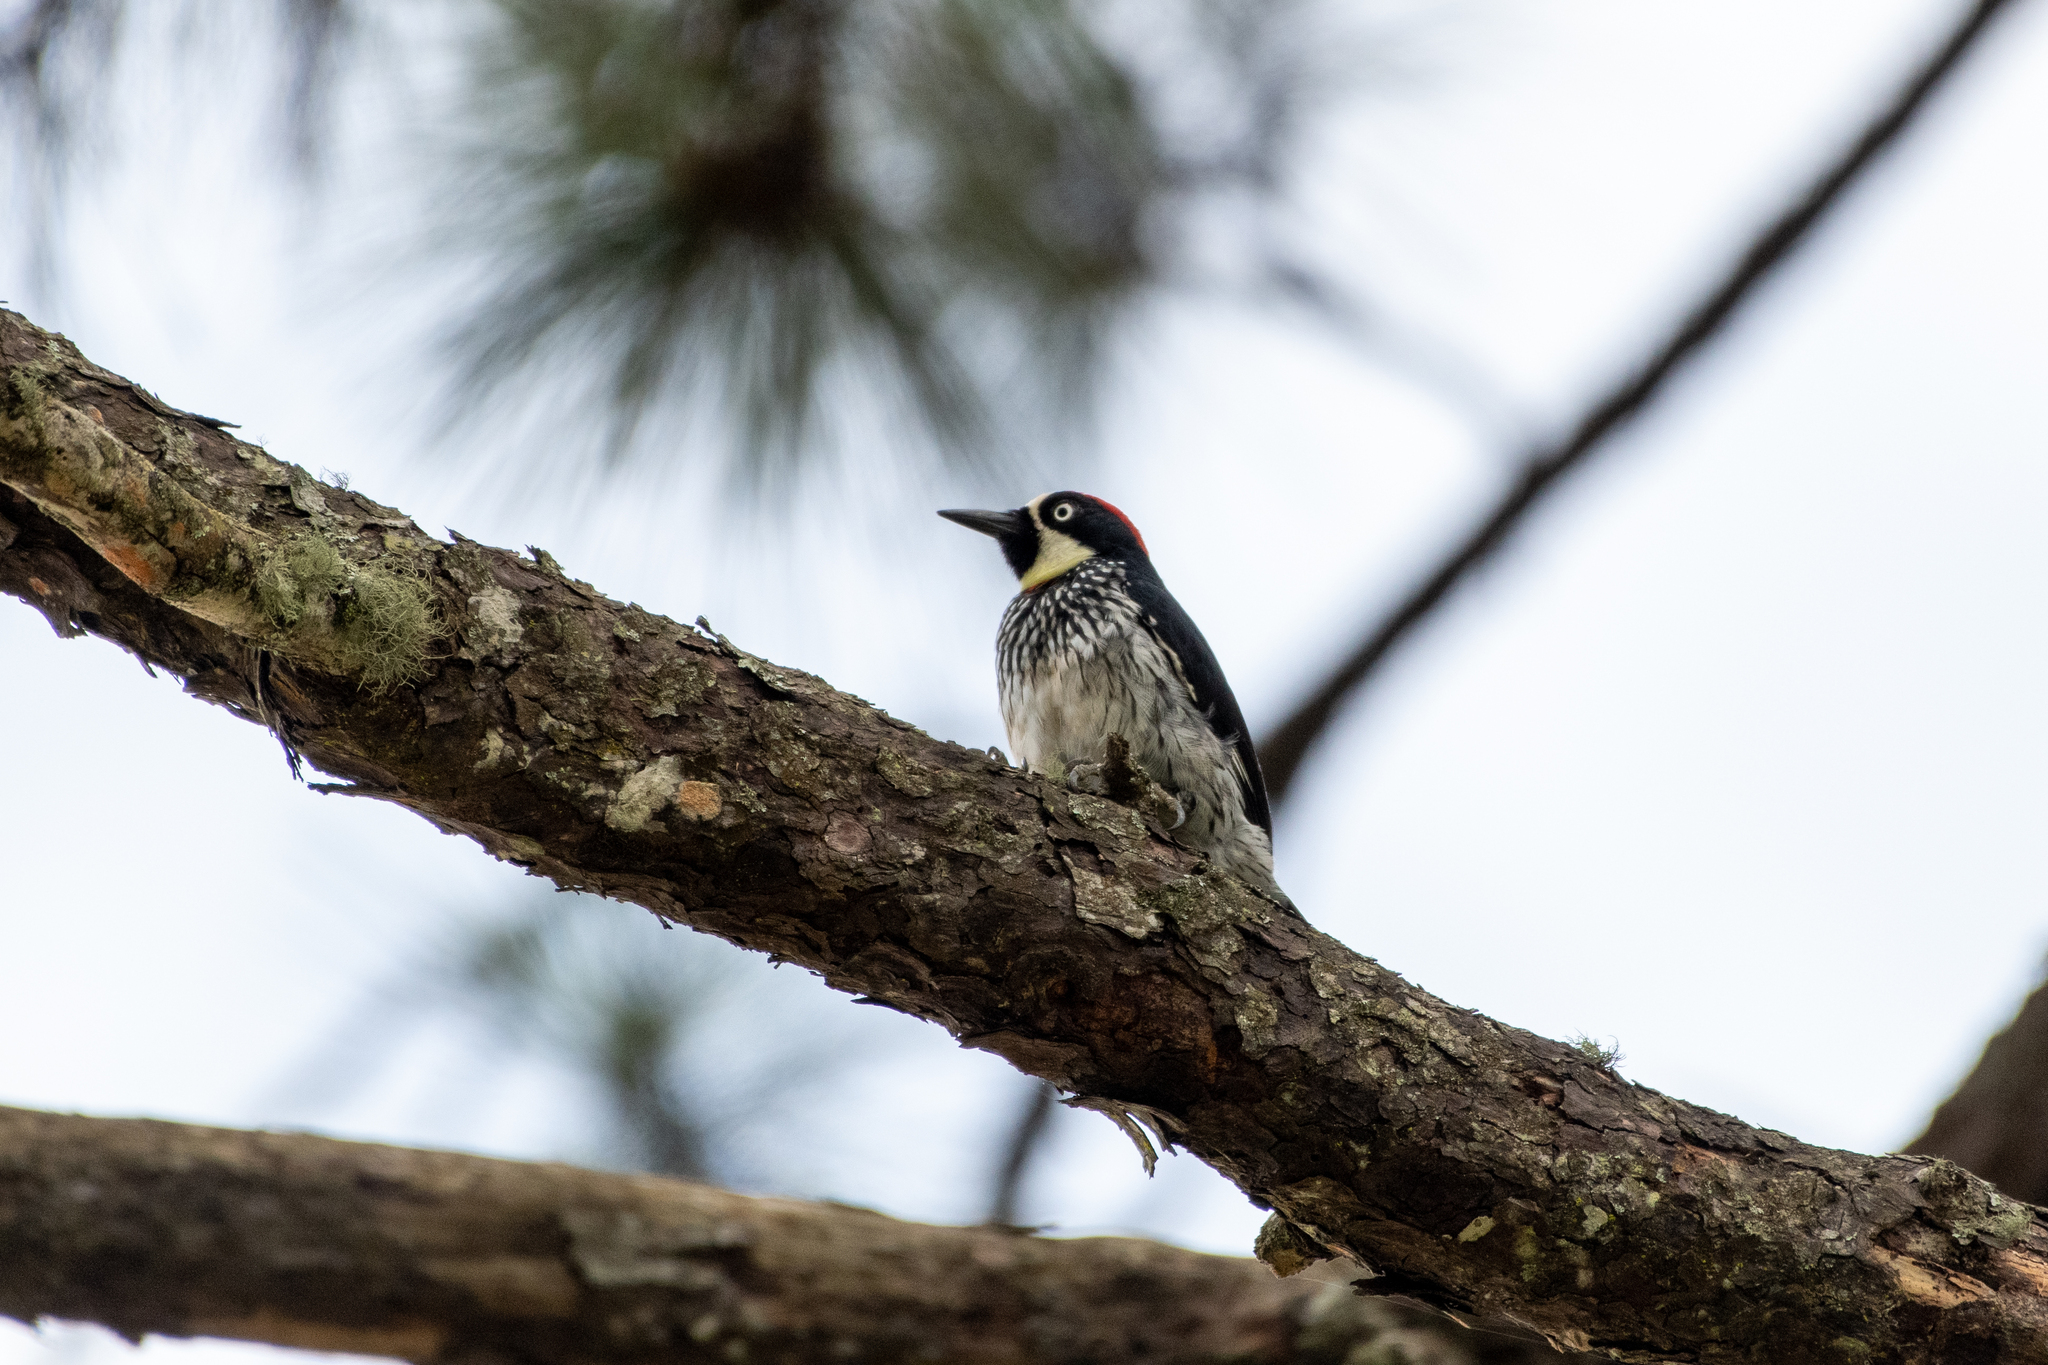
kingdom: Animalia
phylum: Chordata
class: Aves
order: Piciformes
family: Picidae
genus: Melanerpes
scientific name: Melanerpes formicivorus
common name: Acorn woodpecker
